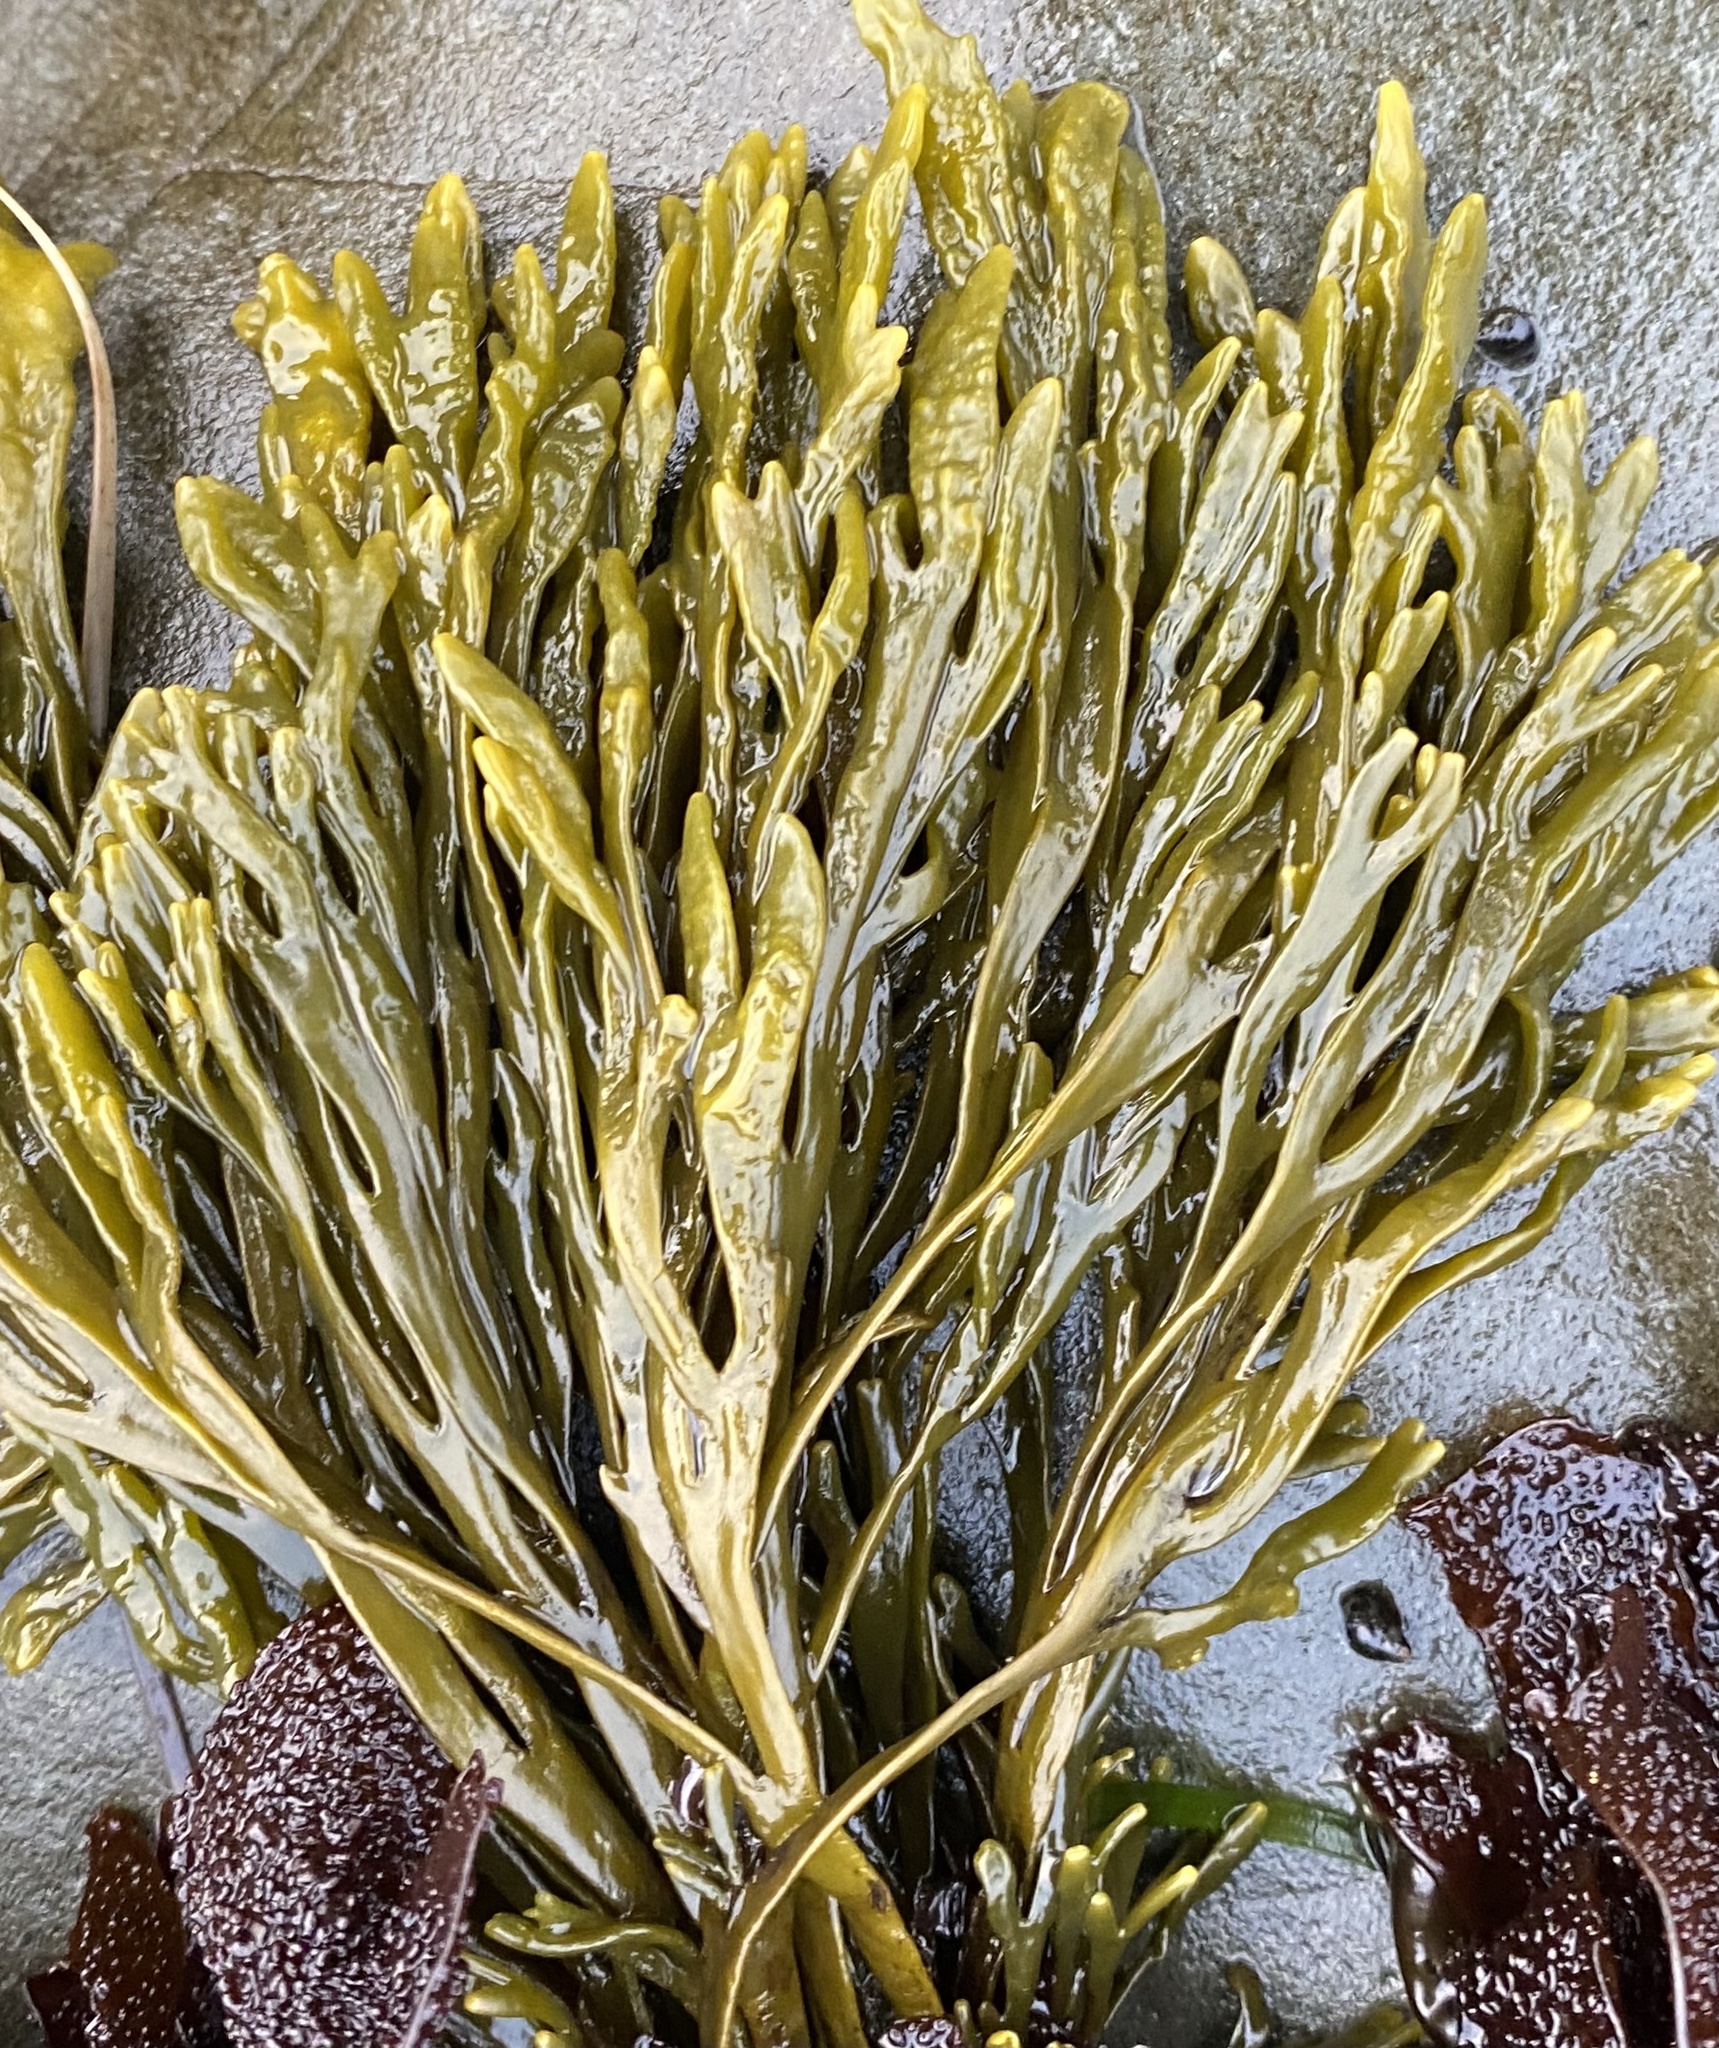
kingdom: Chromista
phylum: Ochrophyta
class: Phaeophyceae
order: Fucales
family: Fucaceae
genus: Pelvetiopsis
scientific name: Pelvetiopsis limitata
